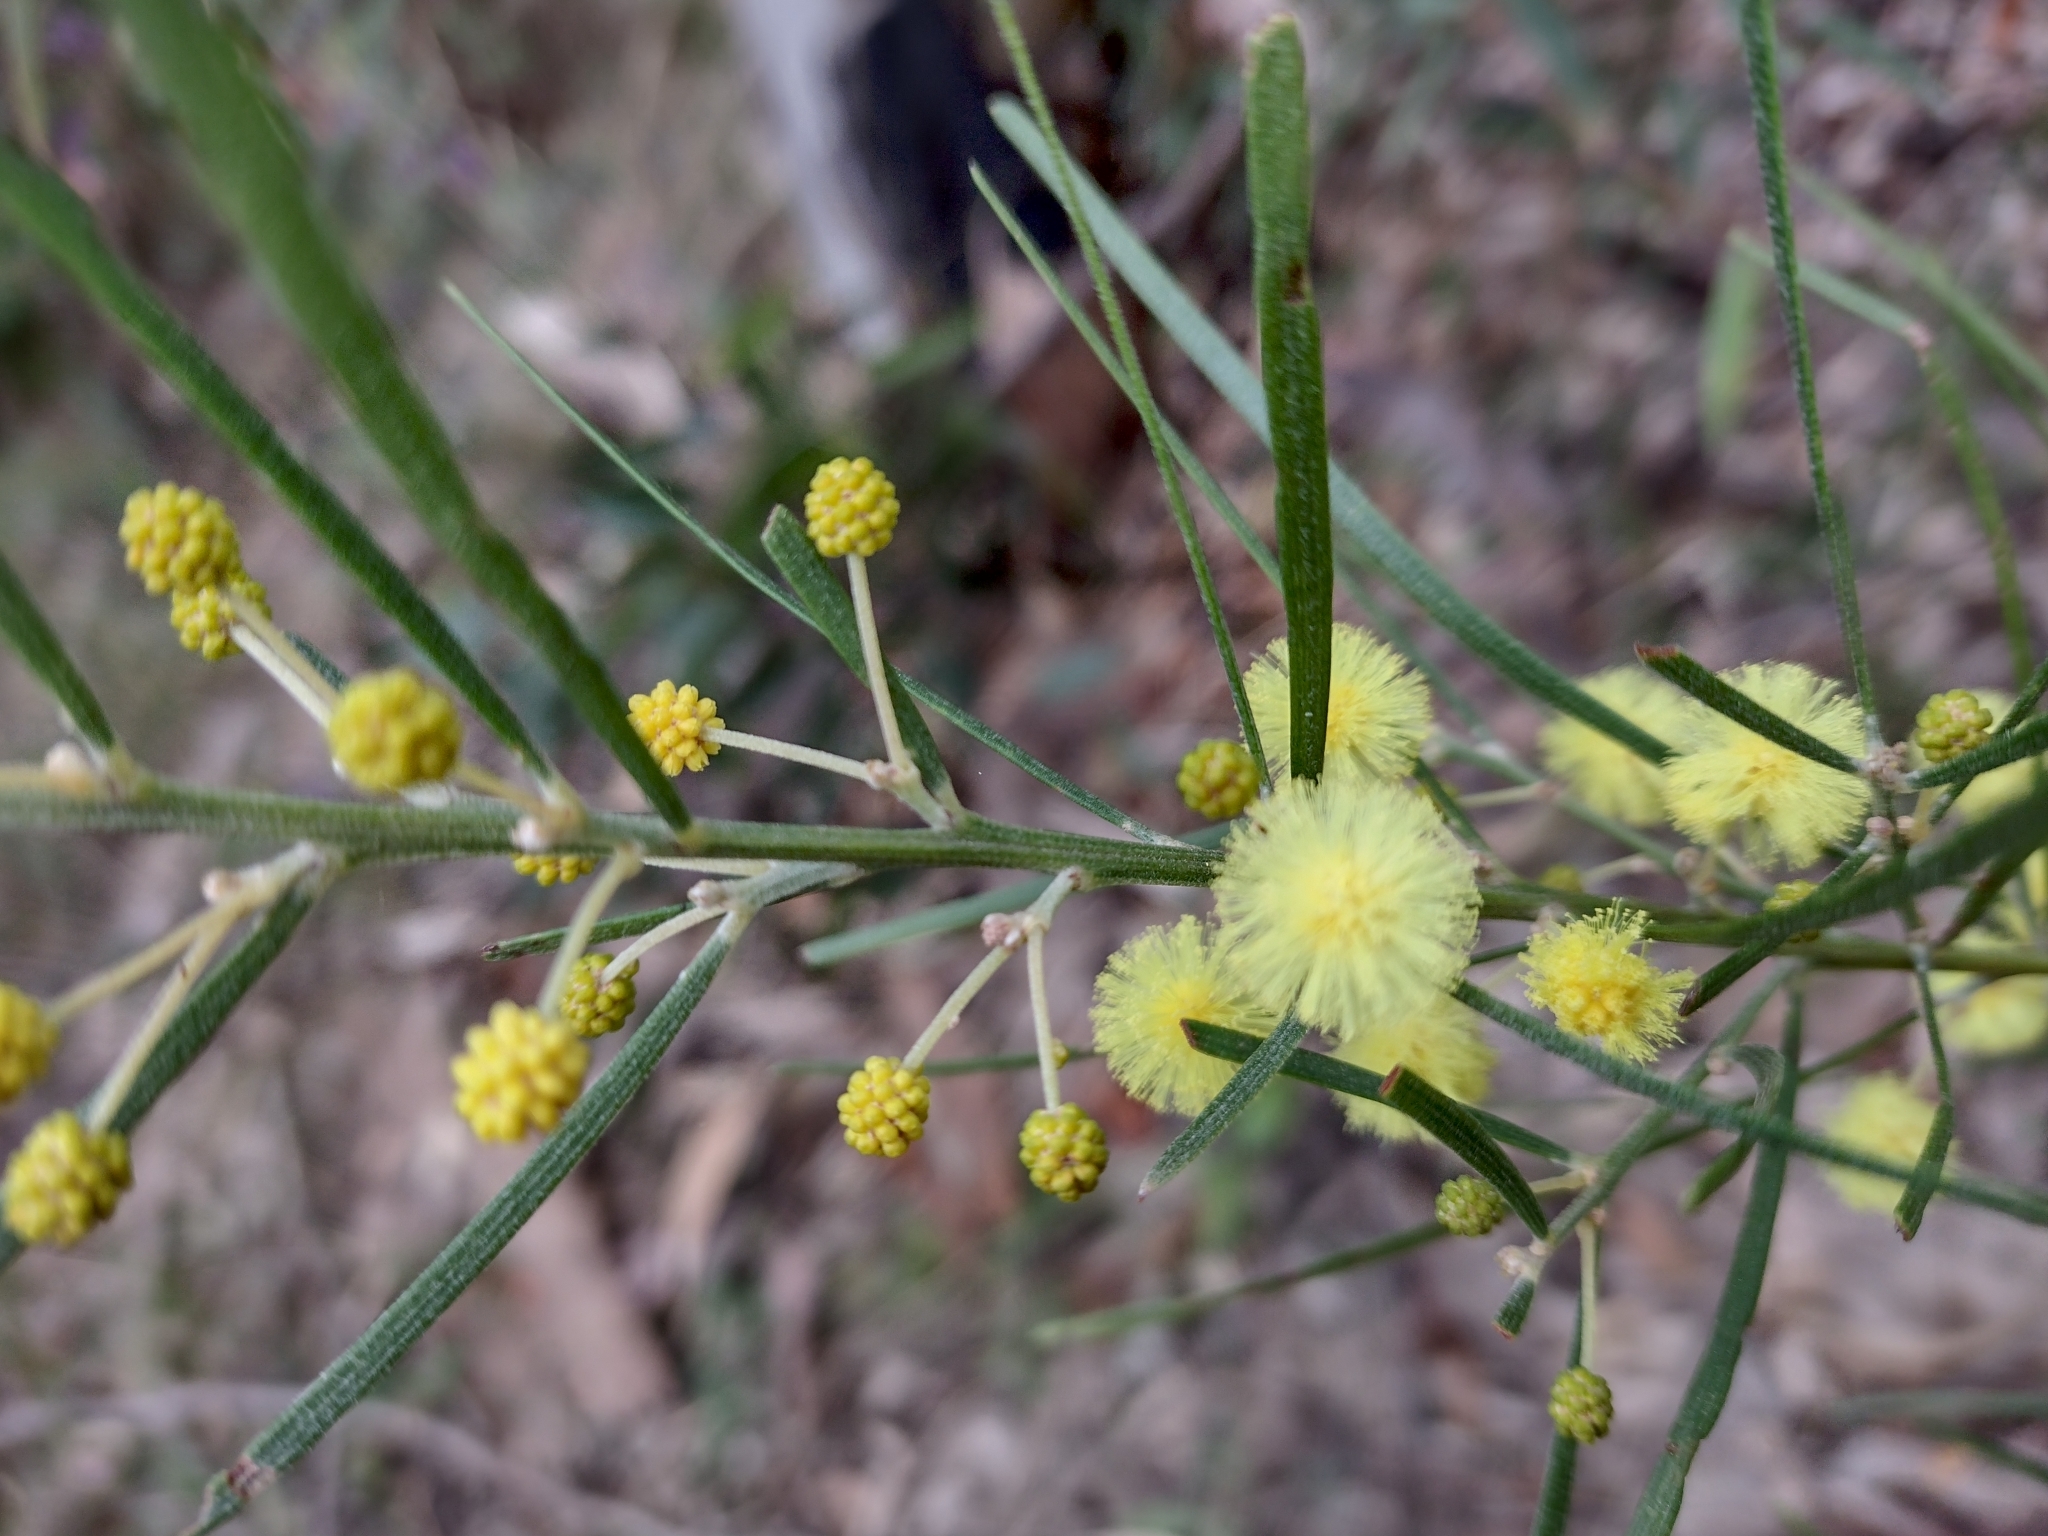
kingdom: Plantae
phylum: Tracheophyta
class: Magnoliopsida
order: Fabales
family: Fabaceae
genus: Acacia
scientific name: Acacia elongata
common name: Swamp wattle
